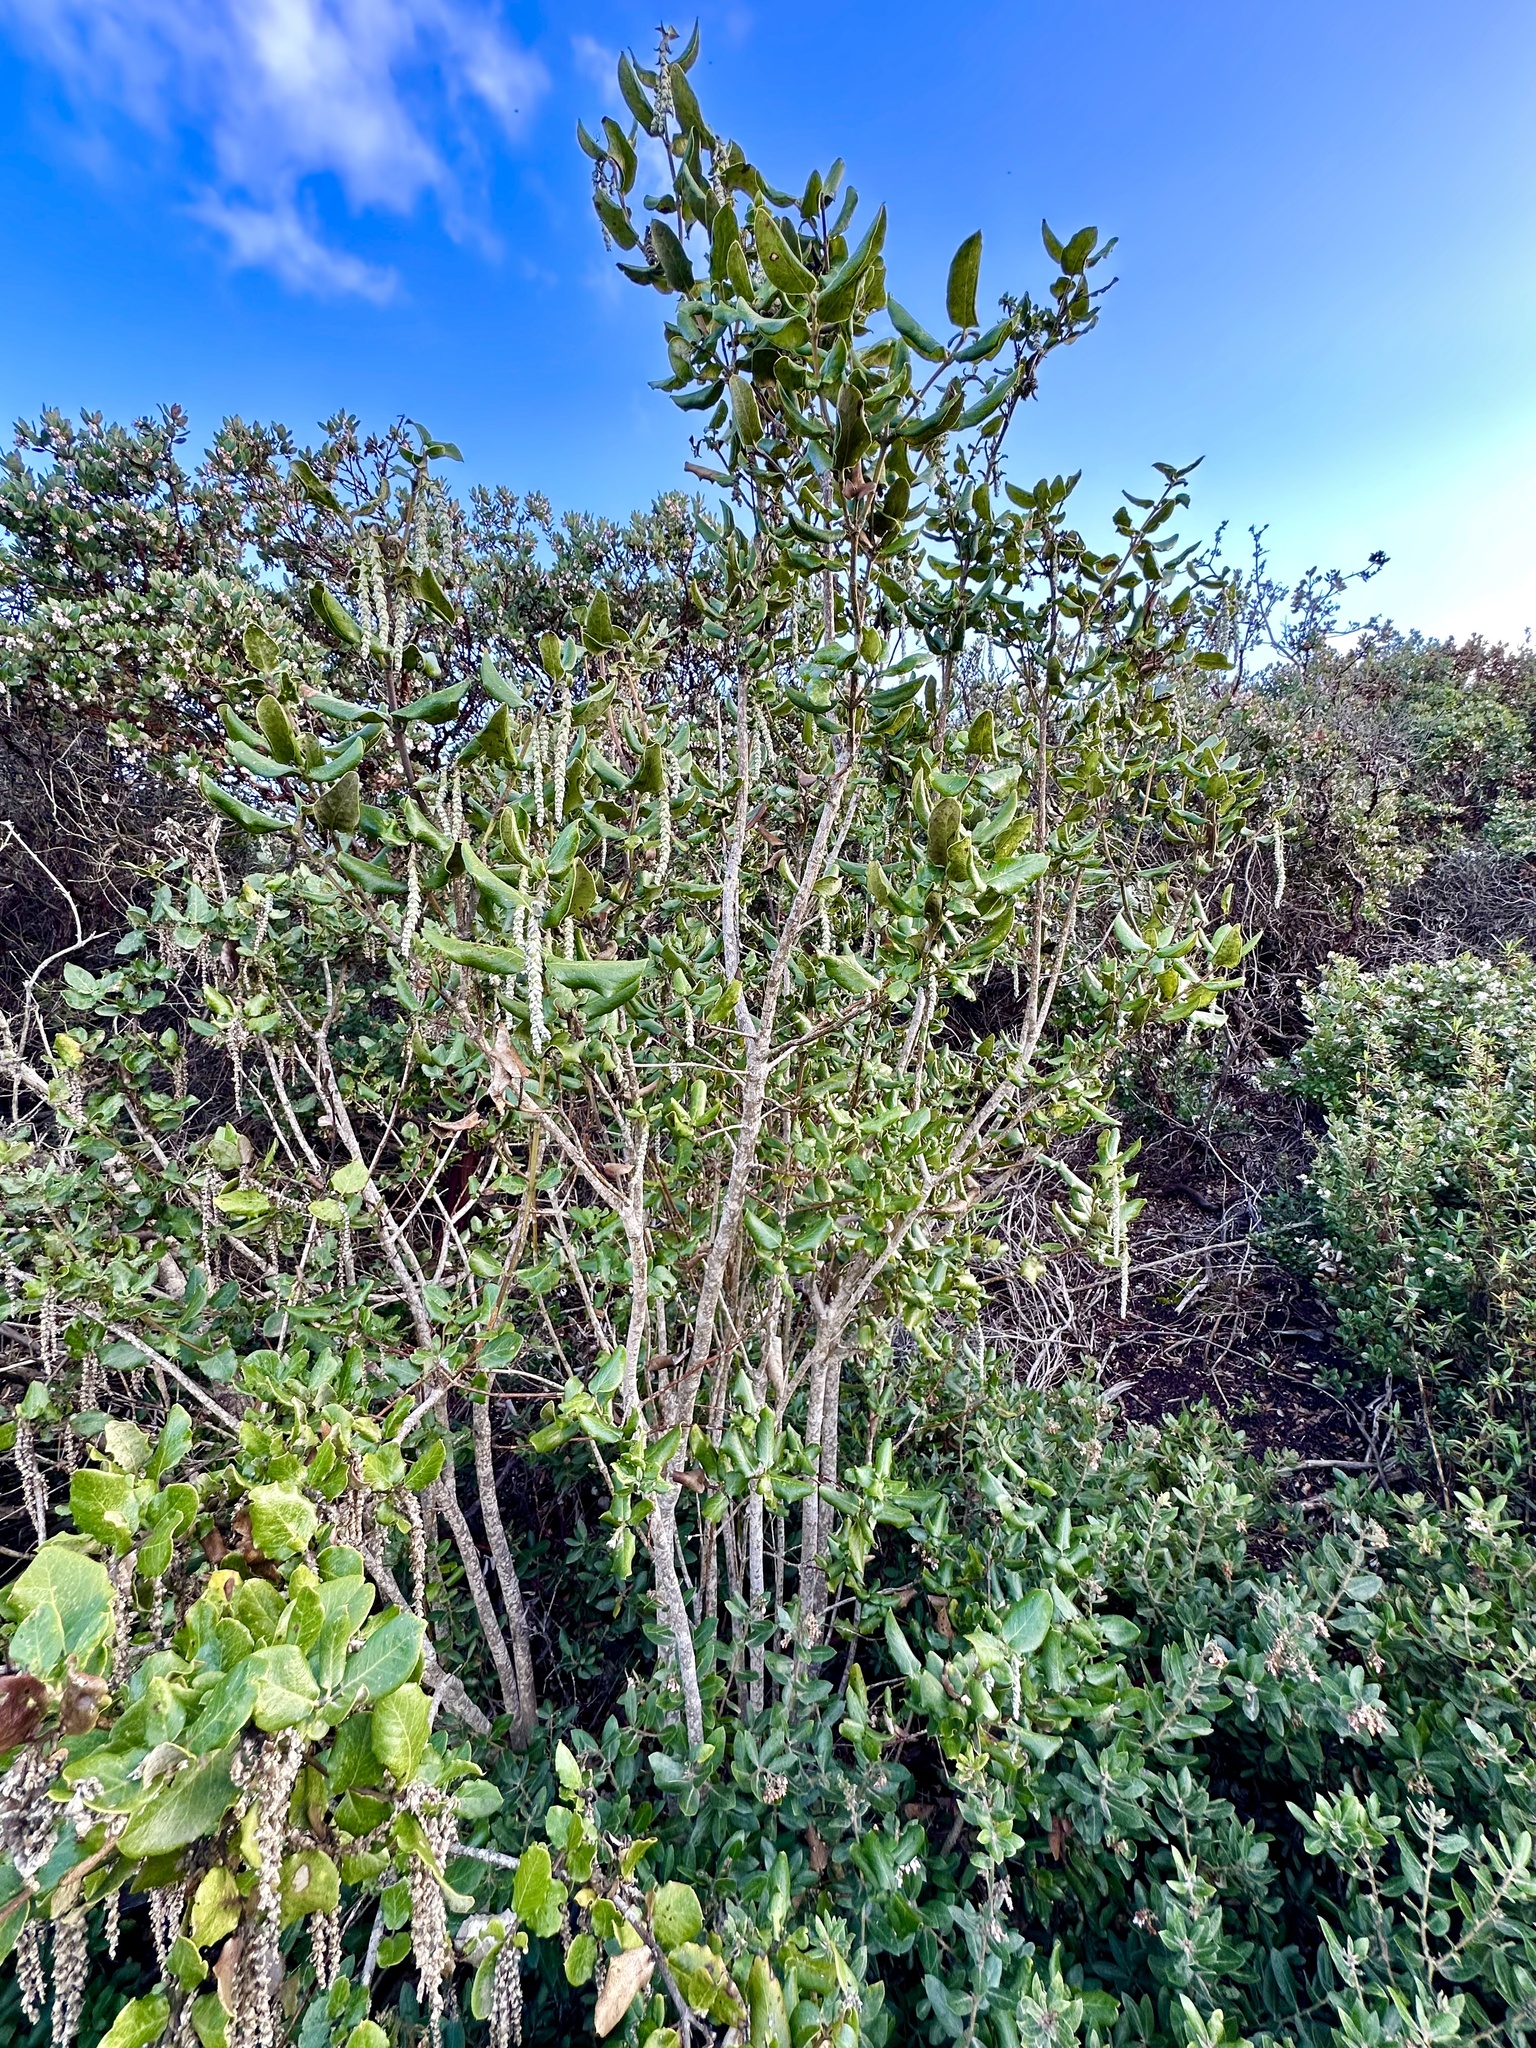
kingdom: Plantae
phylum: Tracheophyta
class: Magnoliopsida
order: Garryales
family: Garryaceae
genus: Garrya
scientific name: Garrya elliptica
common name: Silk-tassel
